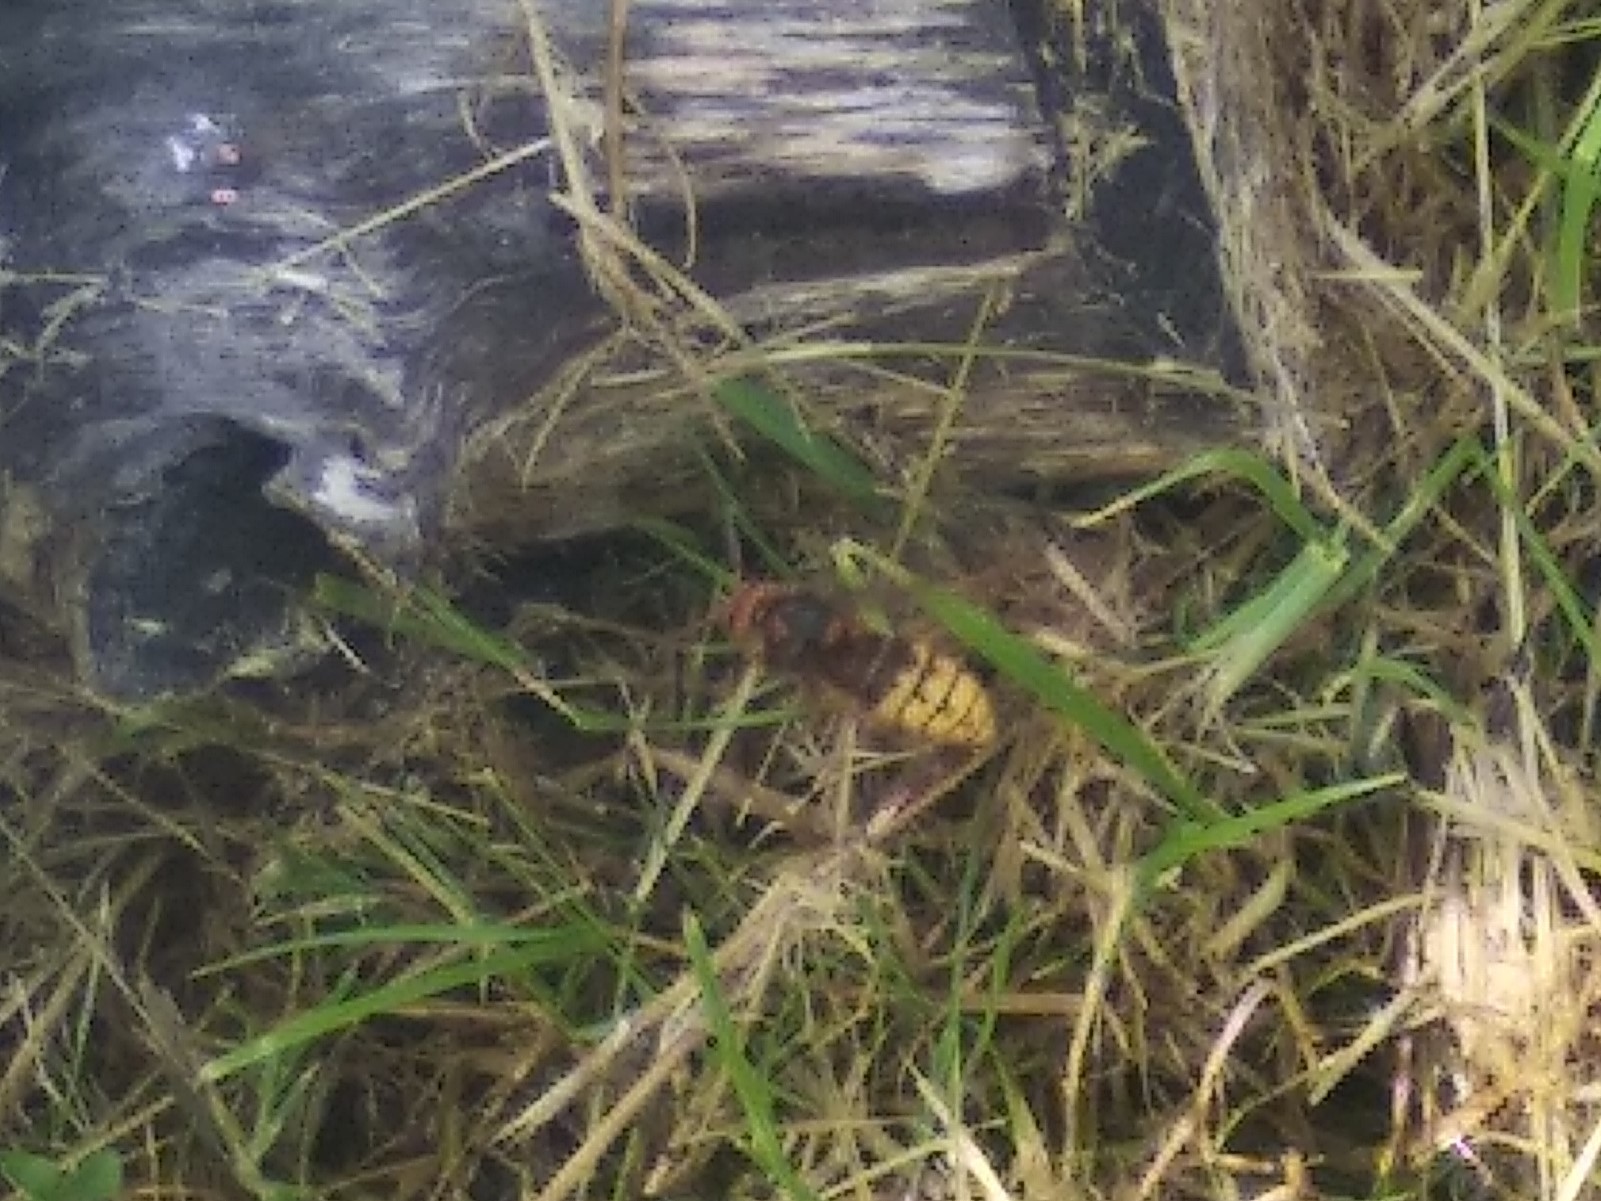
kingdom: Animalia
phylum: Arthropoda
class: Insecta
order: Hymenoptera
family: Vespidae
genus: Vespa
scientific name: Vespa crabro
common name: Hornet
